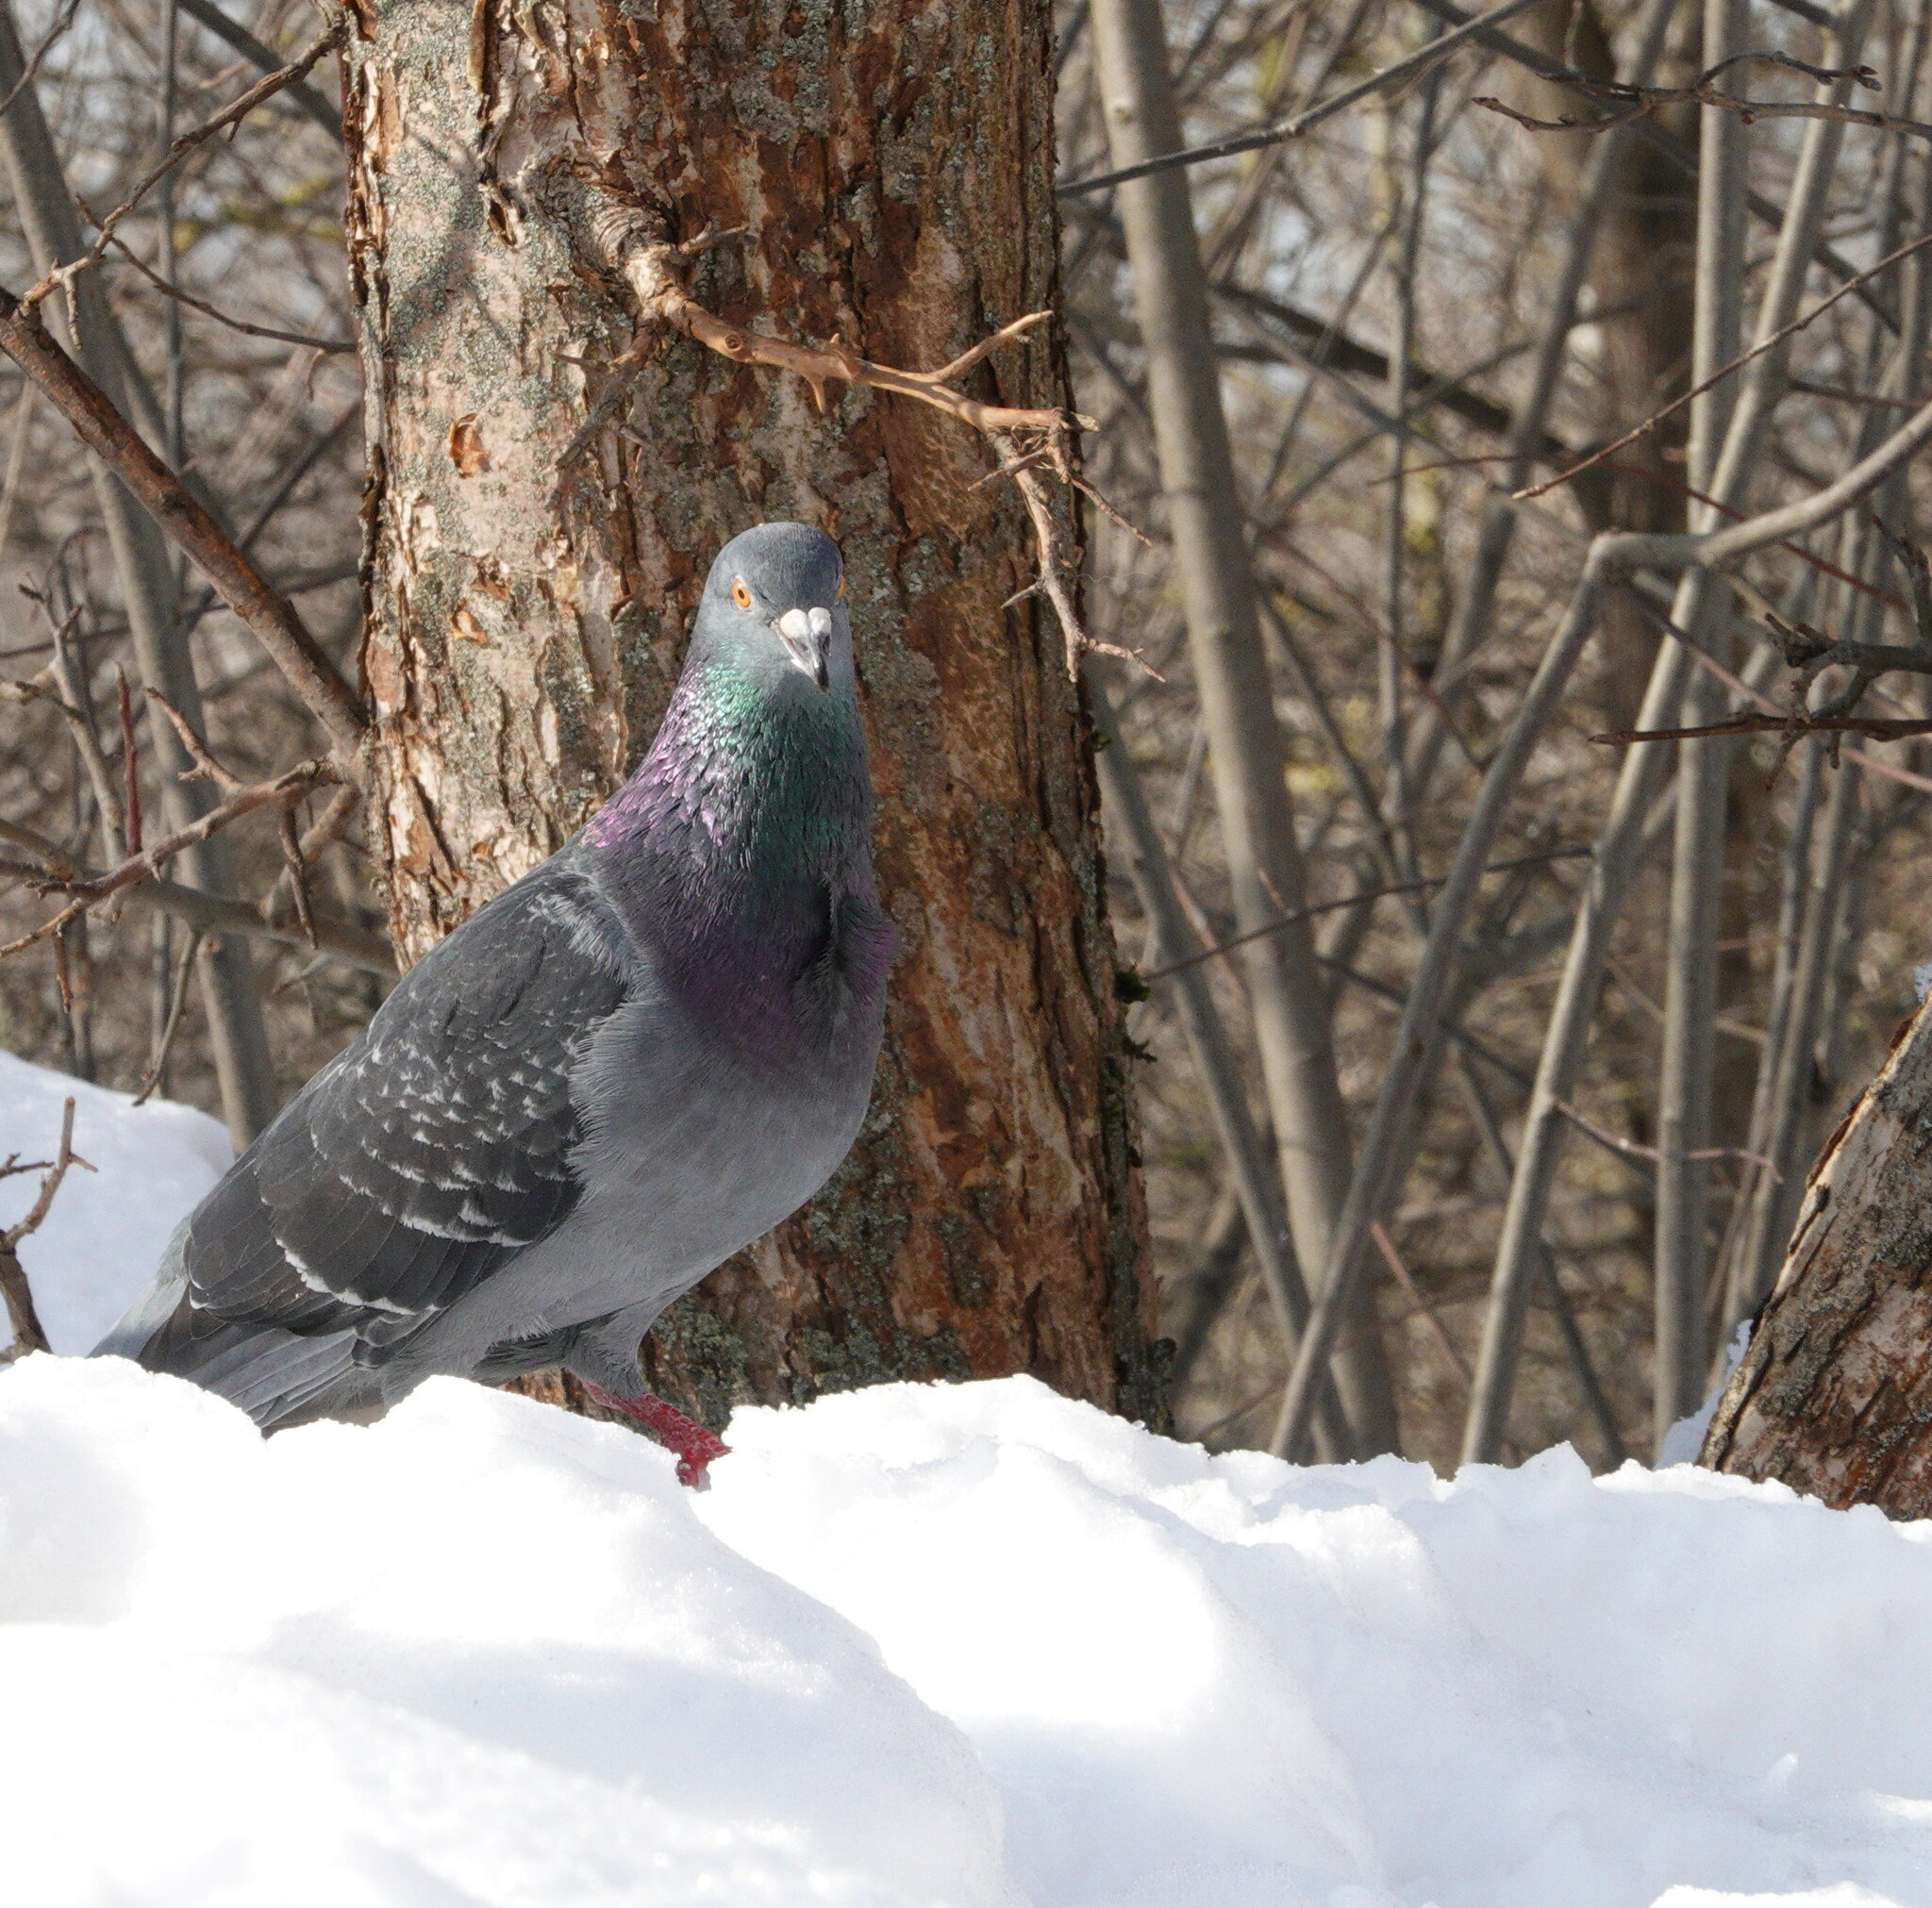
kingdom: Animalia
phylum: Chordata
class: Aves
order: Columbiformes
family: Columbidae
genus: Columba
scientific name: Columba livia
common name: Rock pigeon
